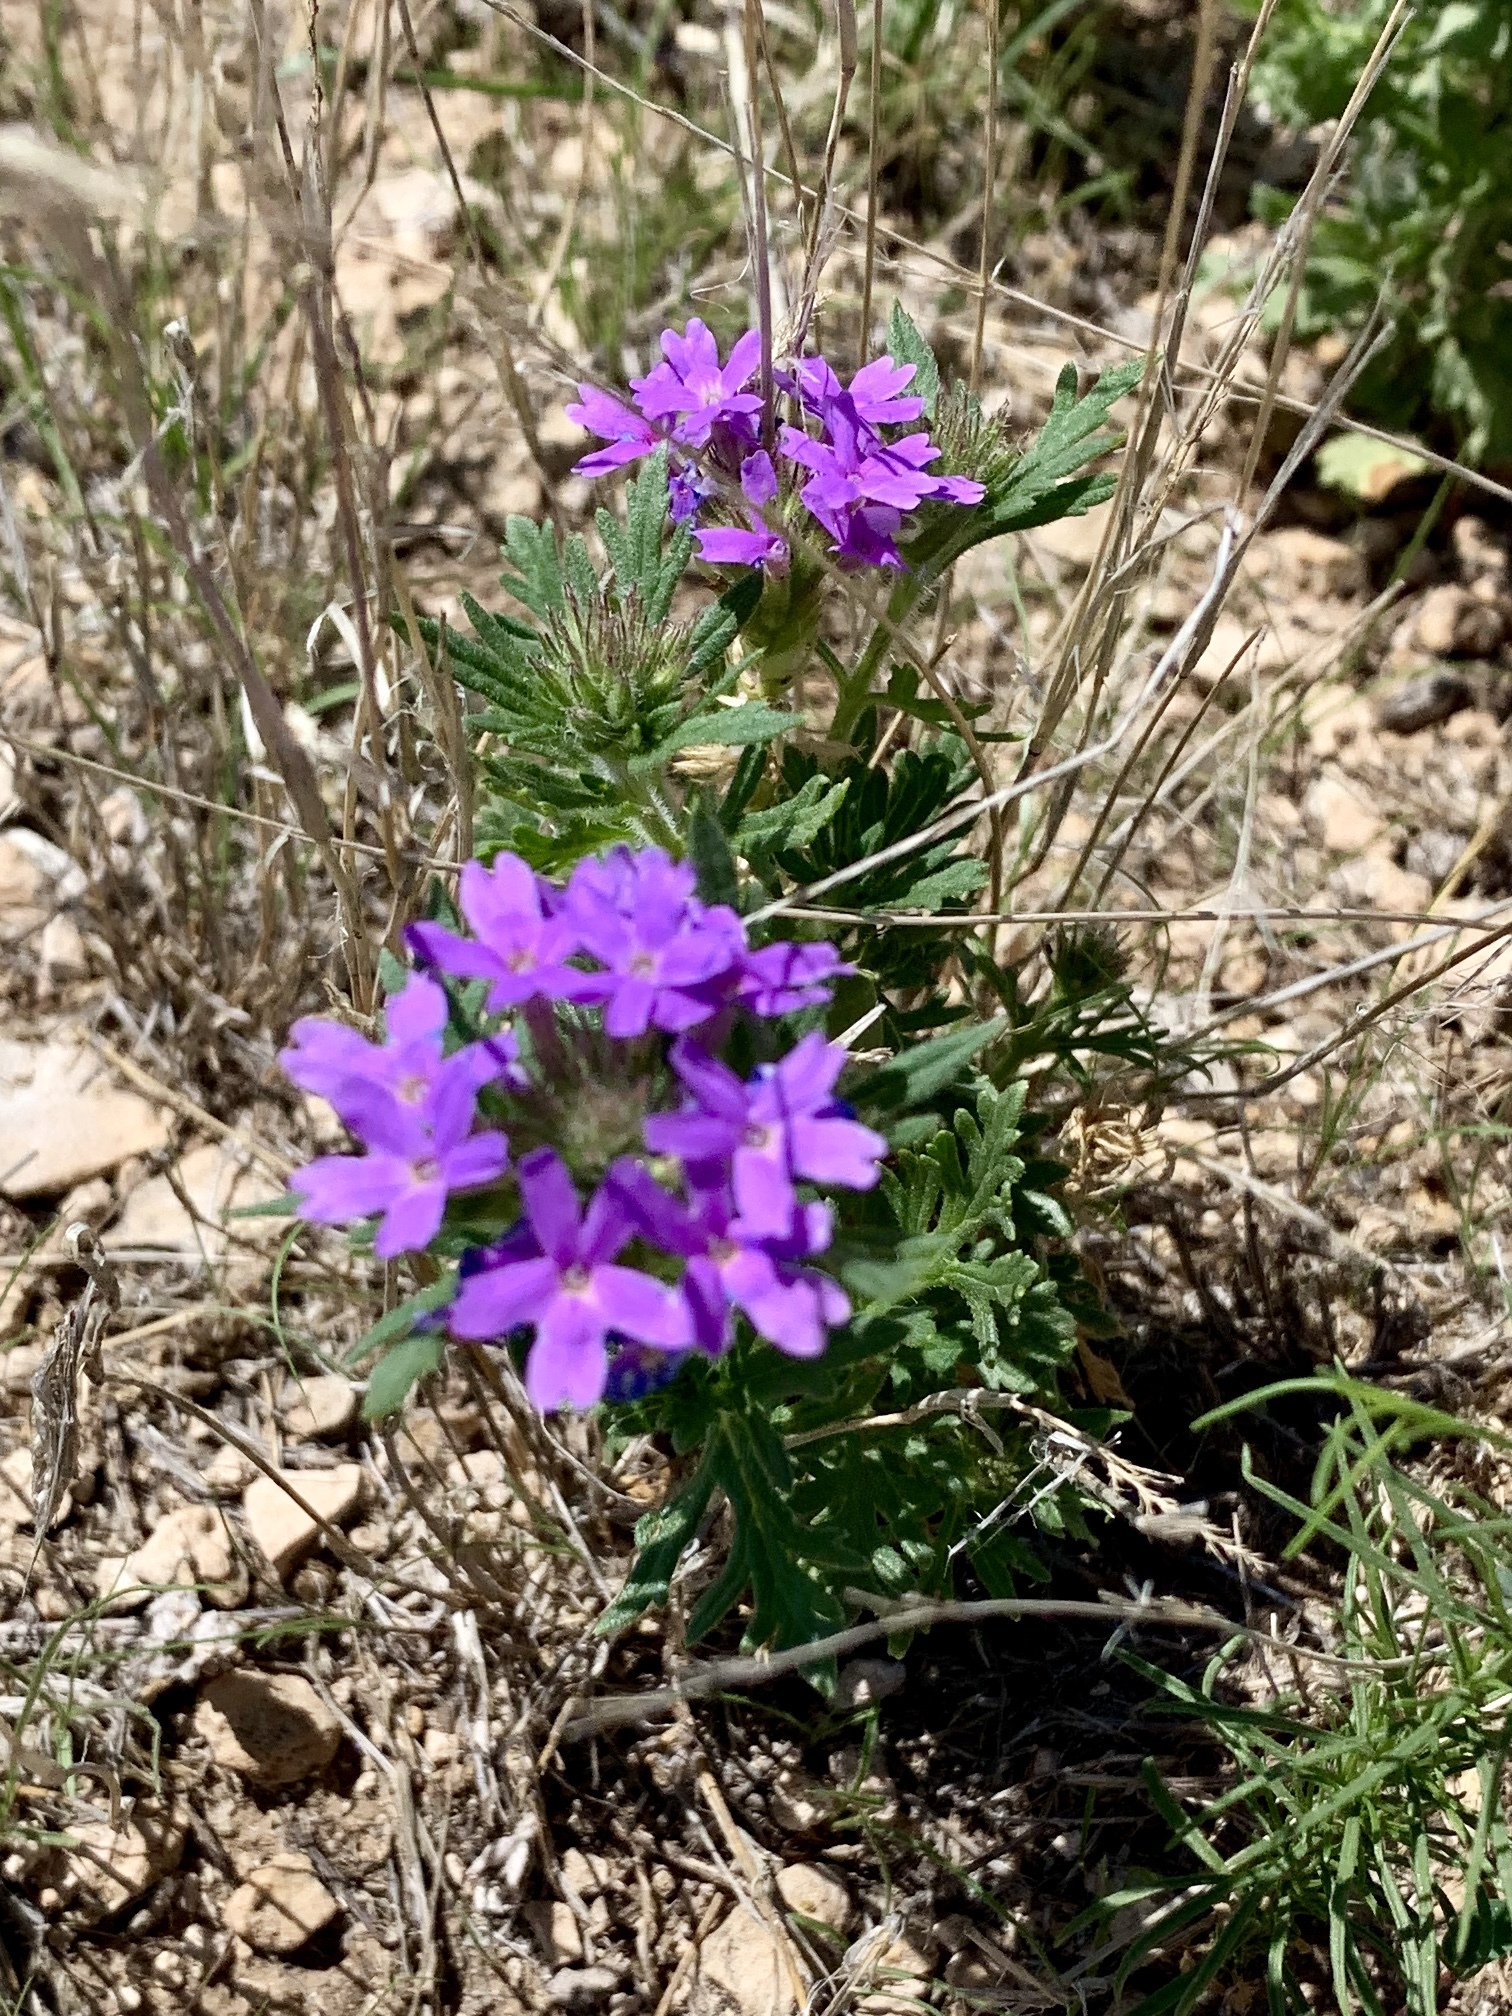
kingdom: Plantae
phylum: Tracheophyta
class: Magnoliopsida
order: Lamiales
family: Verbenaceae
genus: Verbena
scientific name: Verbena bipinnatifida
